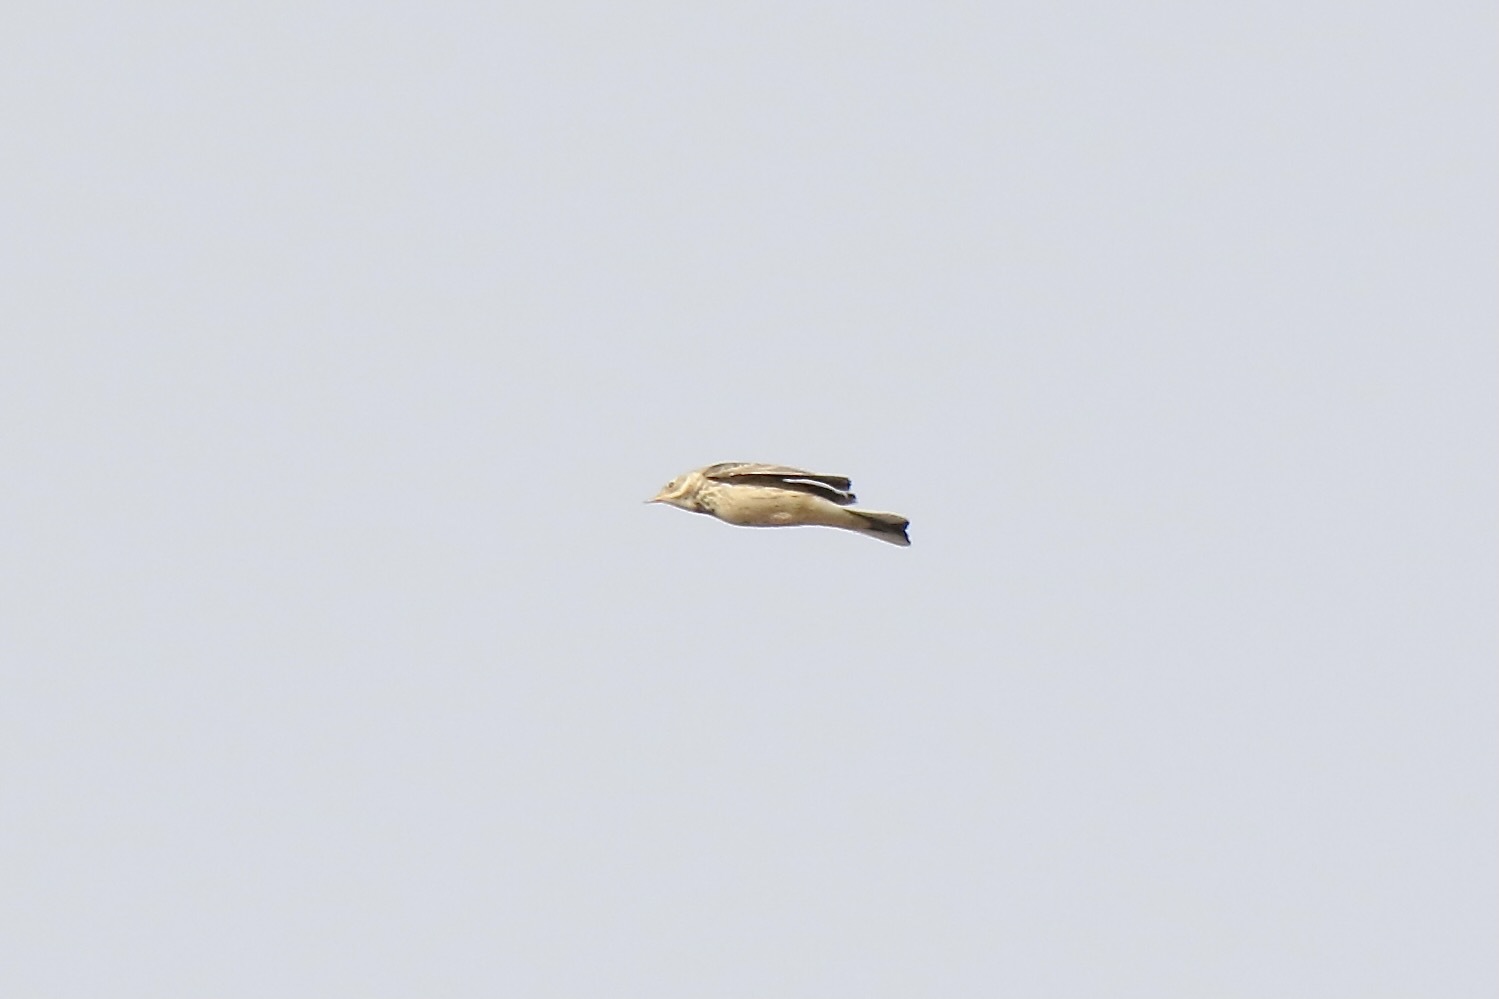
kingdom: Animalia
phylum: Chordata
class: Aves
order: Passeriformes
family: Motacillidae
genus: Anthus
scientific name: Anthus rubescens
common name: Buff-bellied pipit
